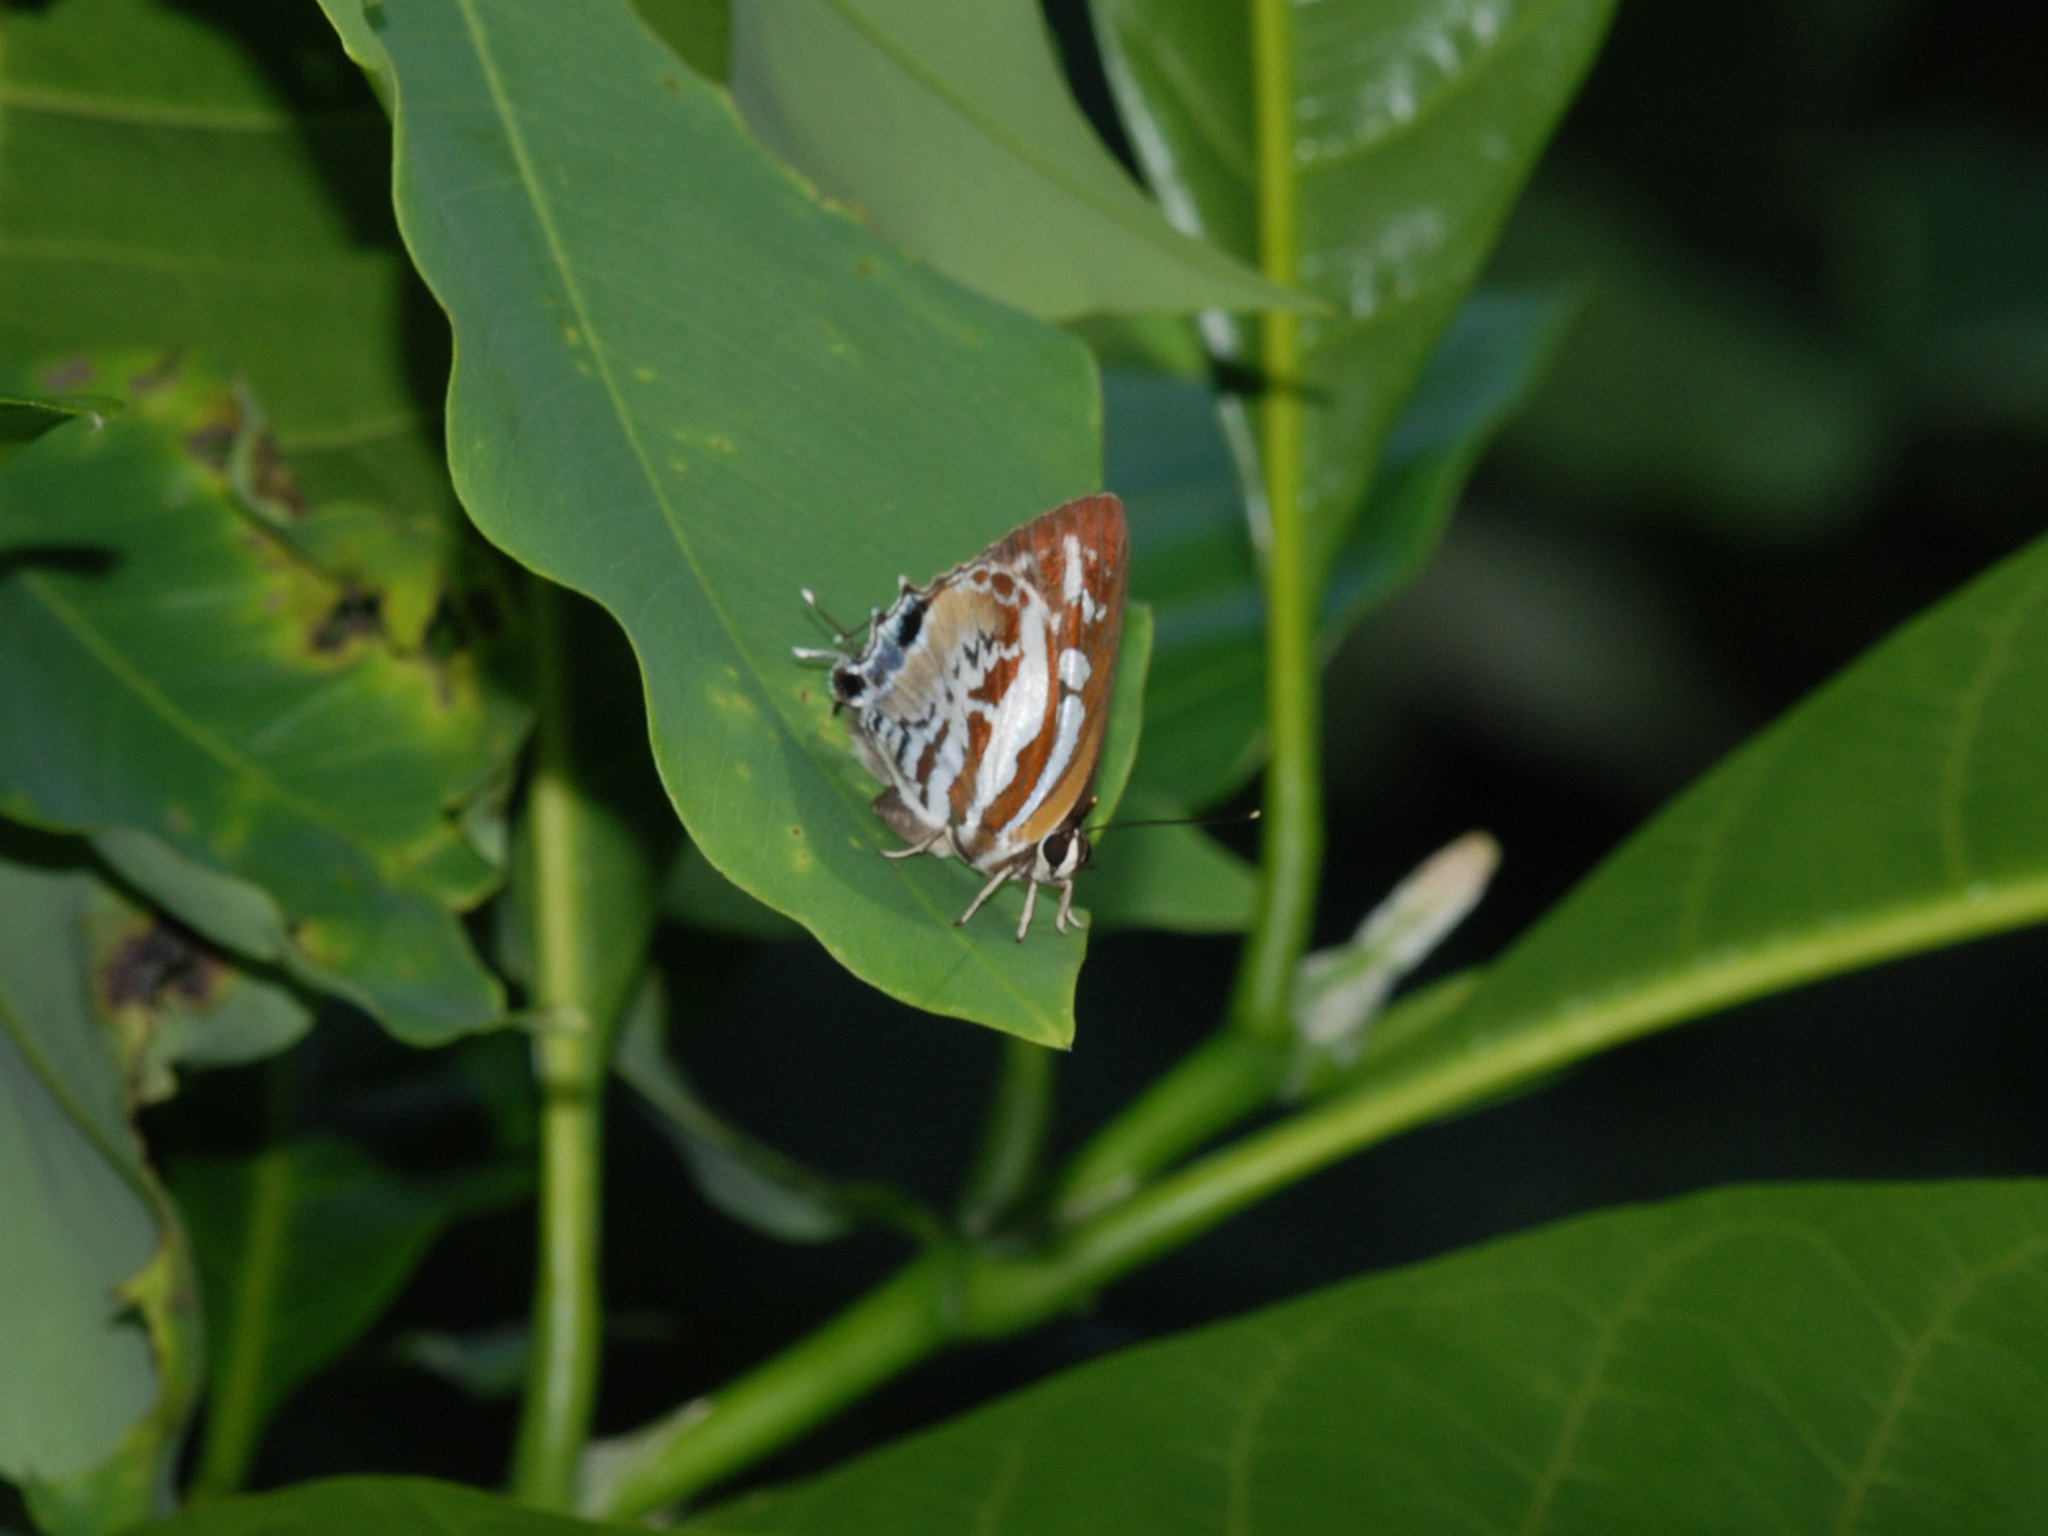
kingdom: Animalia
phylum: Arthropoda
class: Insecta
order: Lepidoptera
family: Lycaenidae
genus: Iraota
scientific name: Iraota rochana
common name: Scarce silverstreak blue
